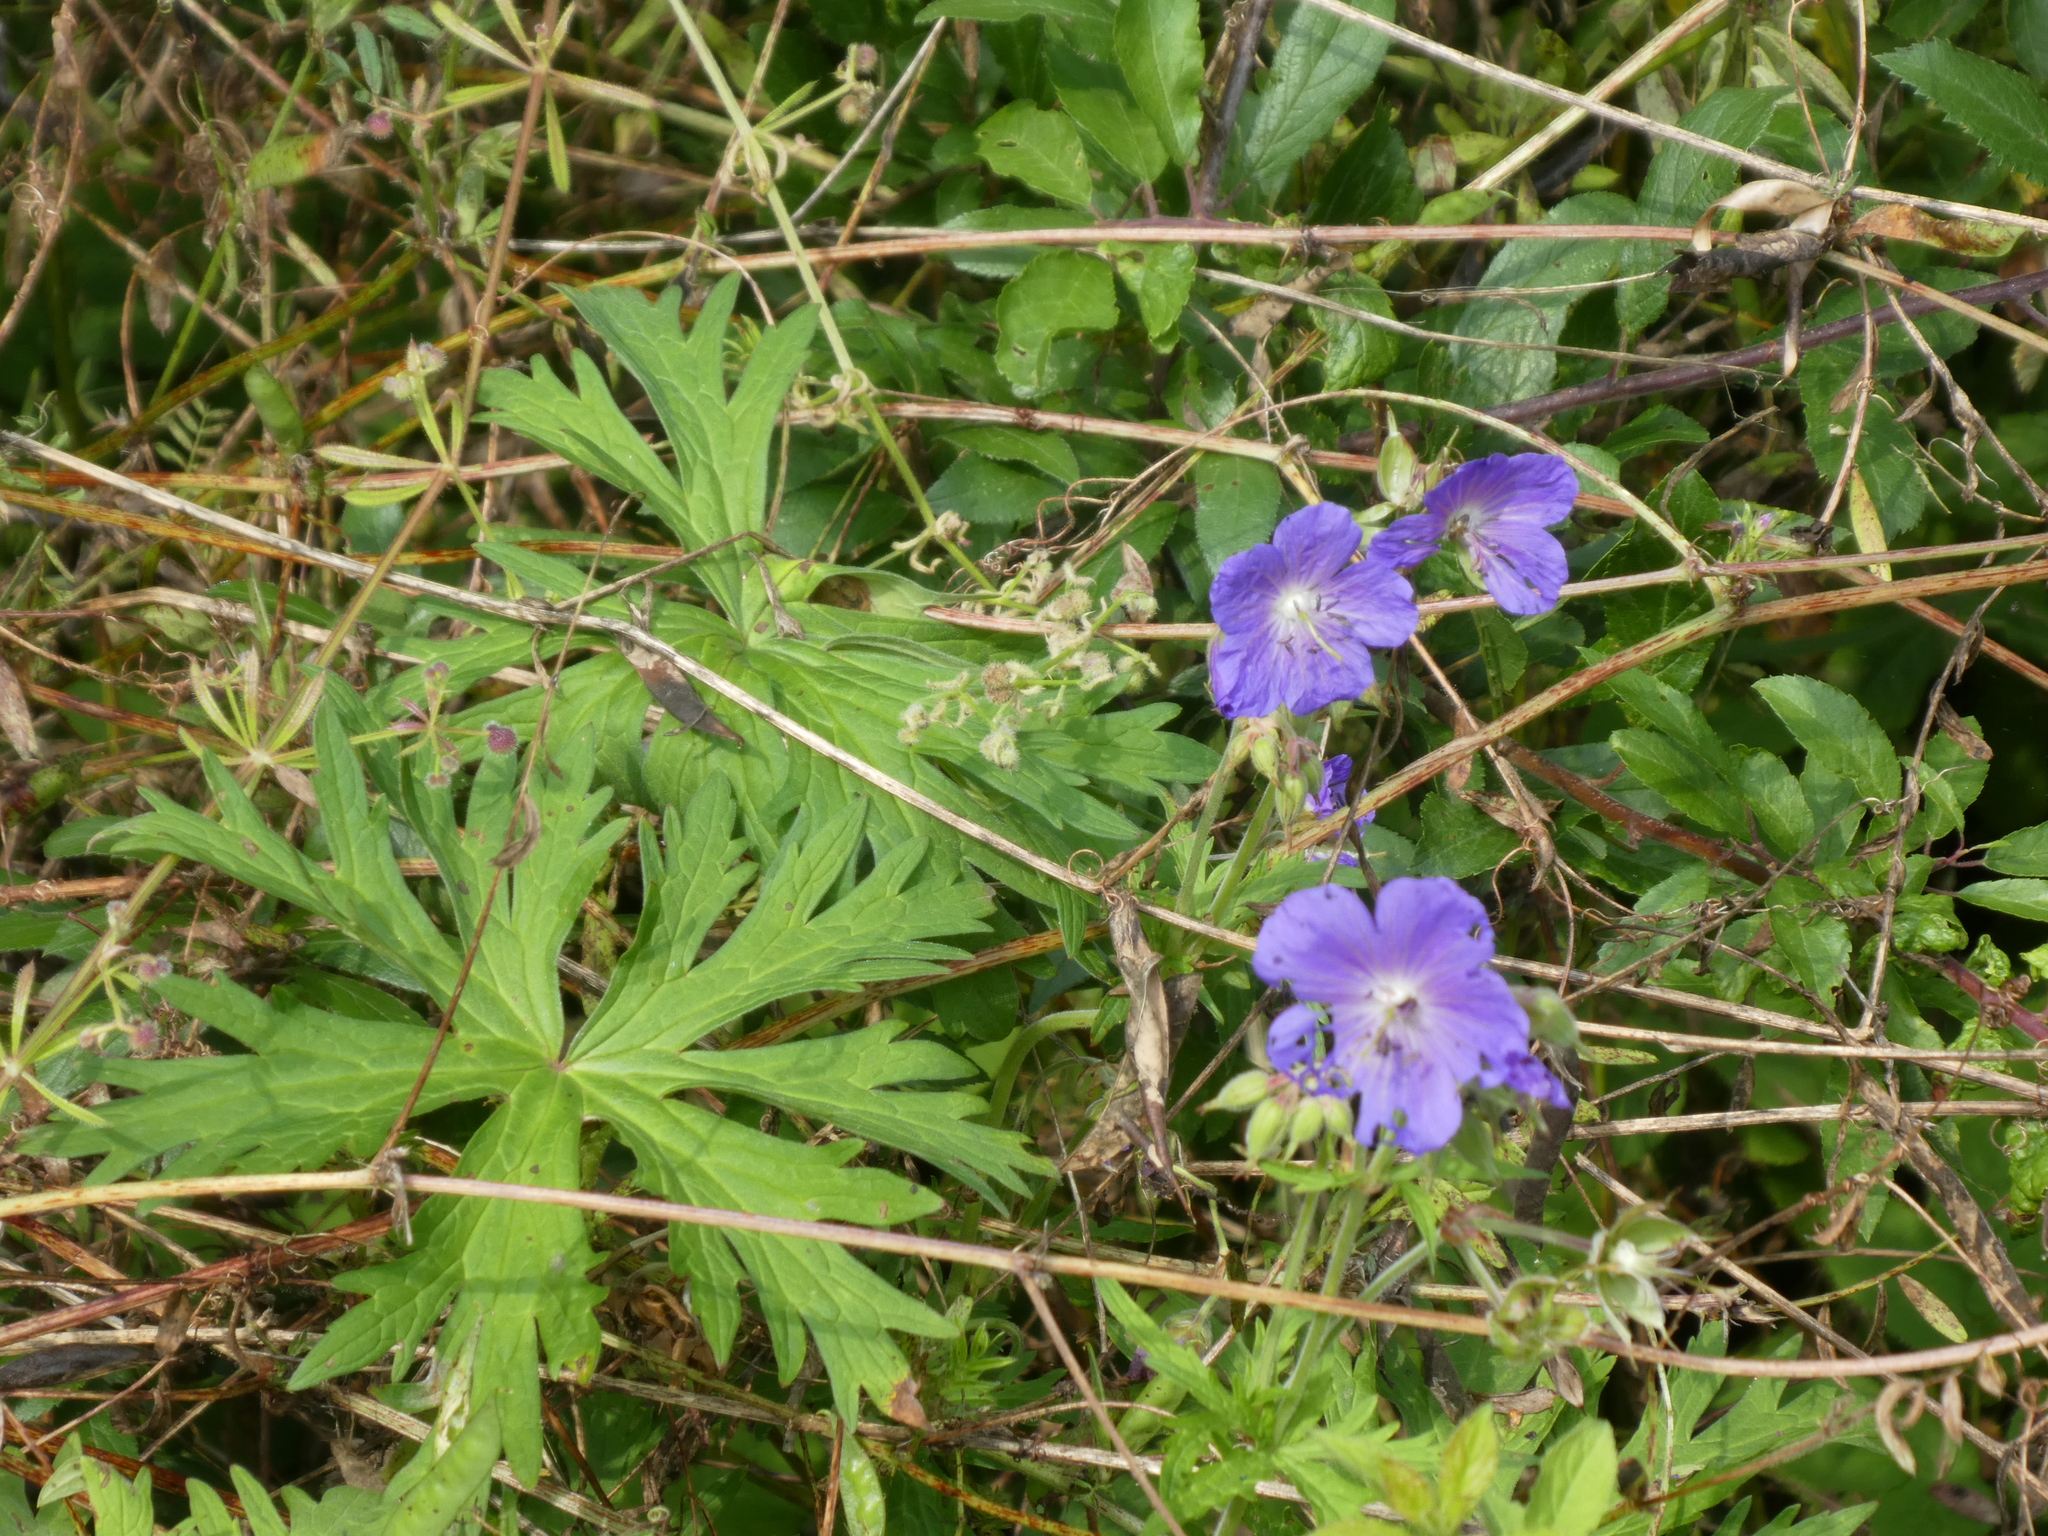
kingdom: Plantae
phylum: Tracheophyta
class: Magnoliopsida
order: Geraniales
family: Geraniaceae
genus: Geranium
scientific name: Geranium pratense
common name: Meadow crane's-bill
